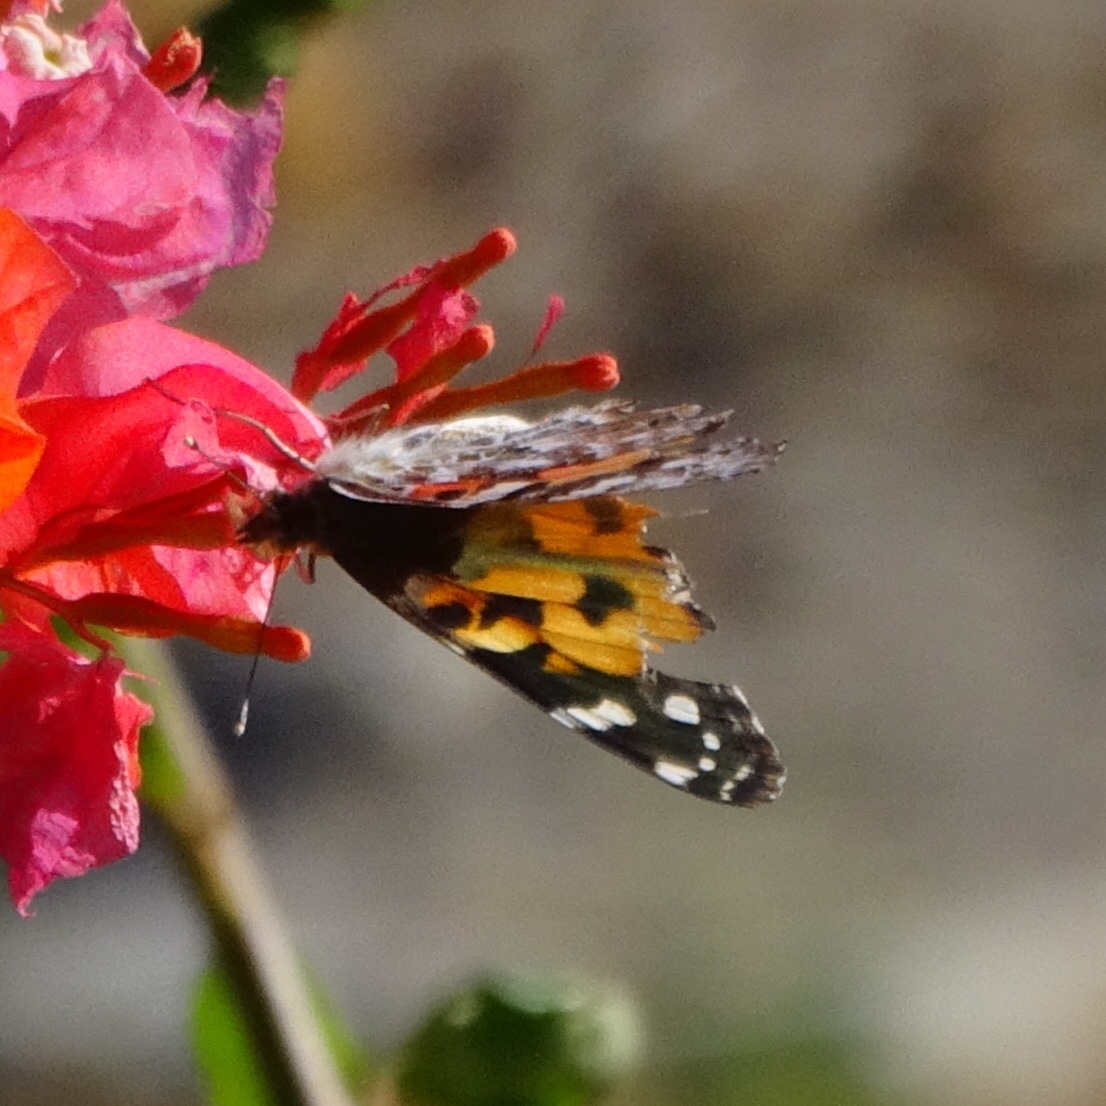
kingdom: Animalia
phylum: Arthropoda
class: Insecta
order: Lepidoptera
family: Nymphalidae
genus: Vanessa
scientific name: Vanessa cardui
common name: Painted lady
